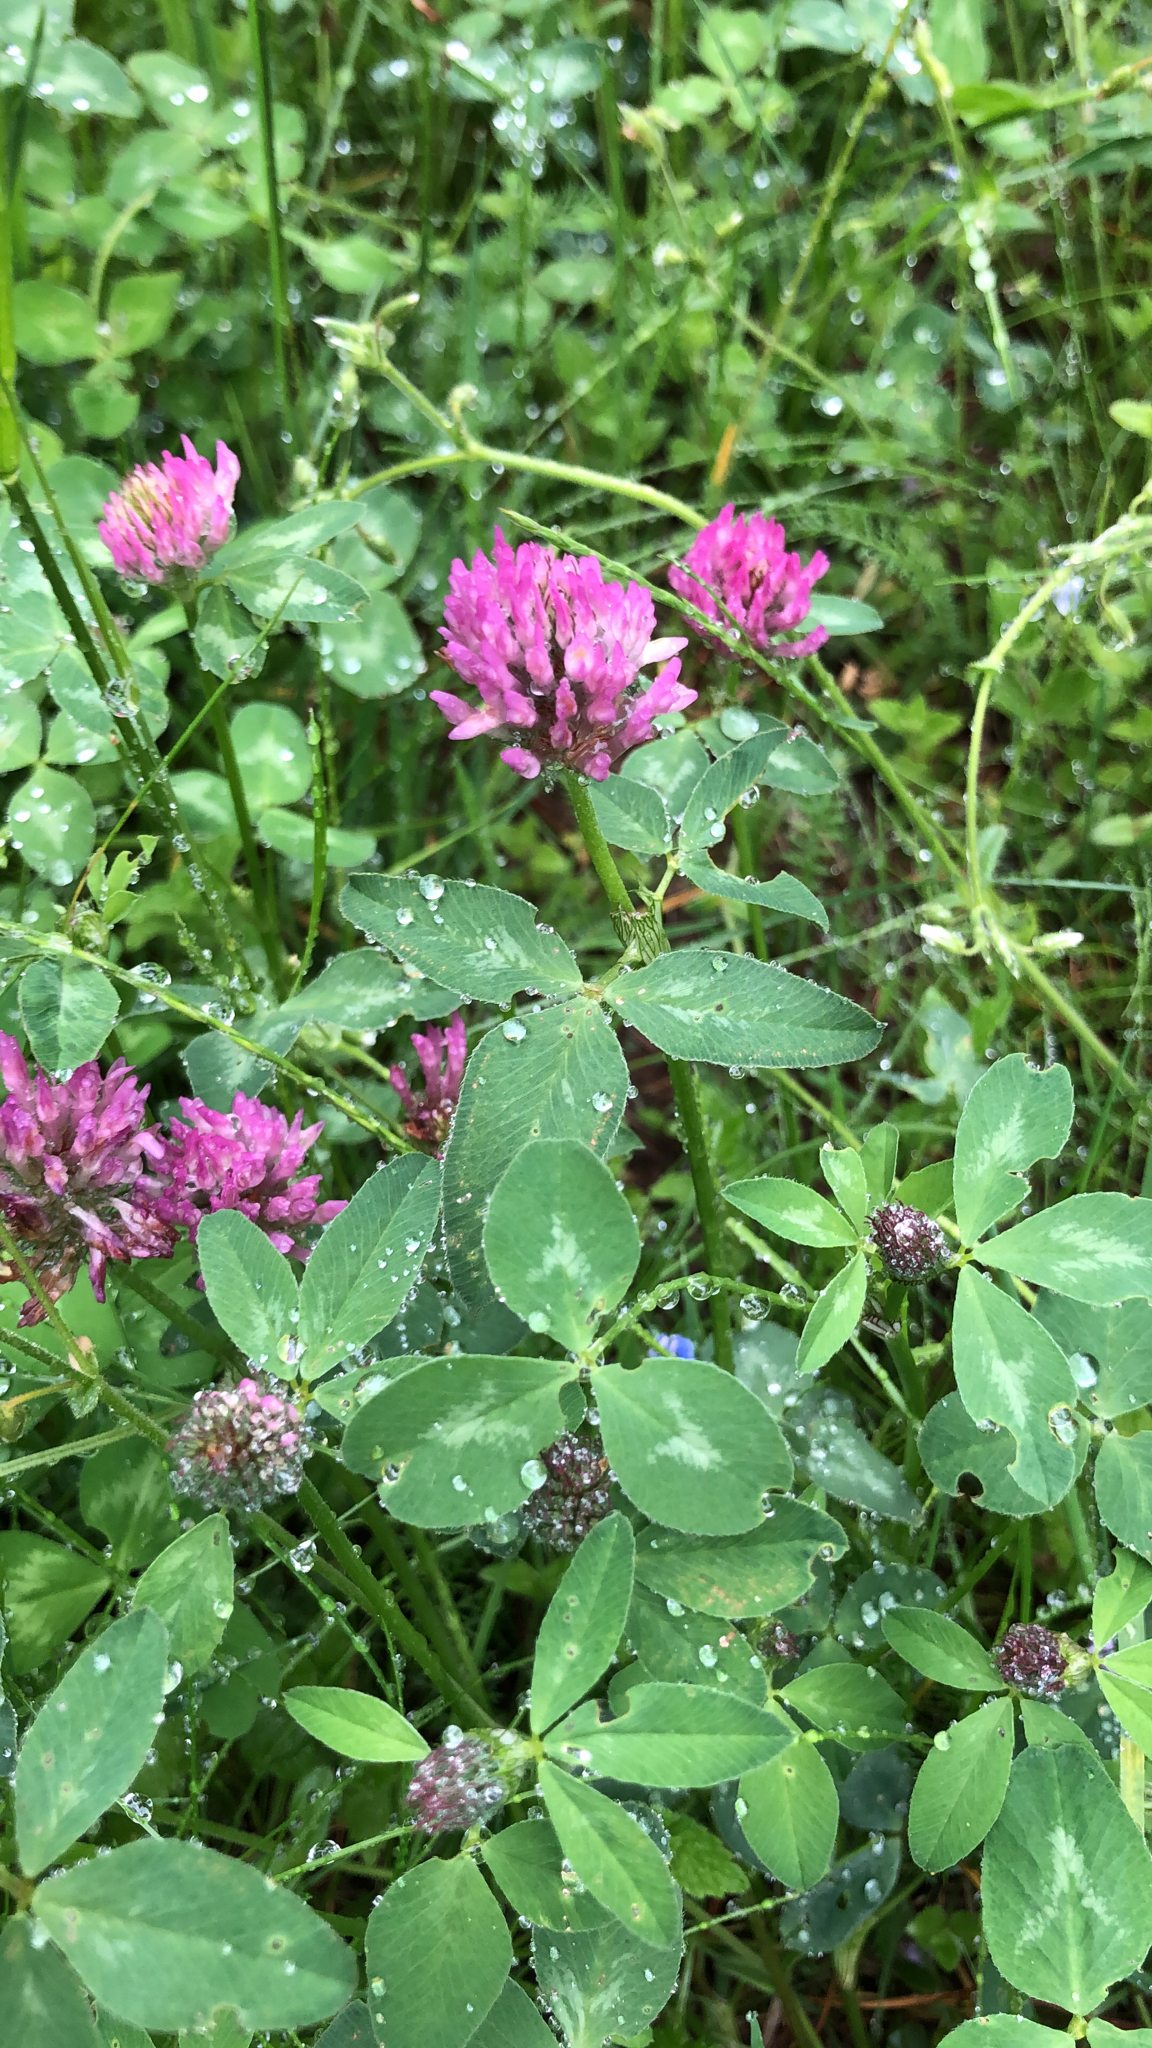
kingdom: Plantae
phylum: Tracheophyta
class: Magnoliopsida
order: Fabales
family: Fabaceae
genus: Trifolium
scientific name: Trifolium pratense
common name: Red clover
